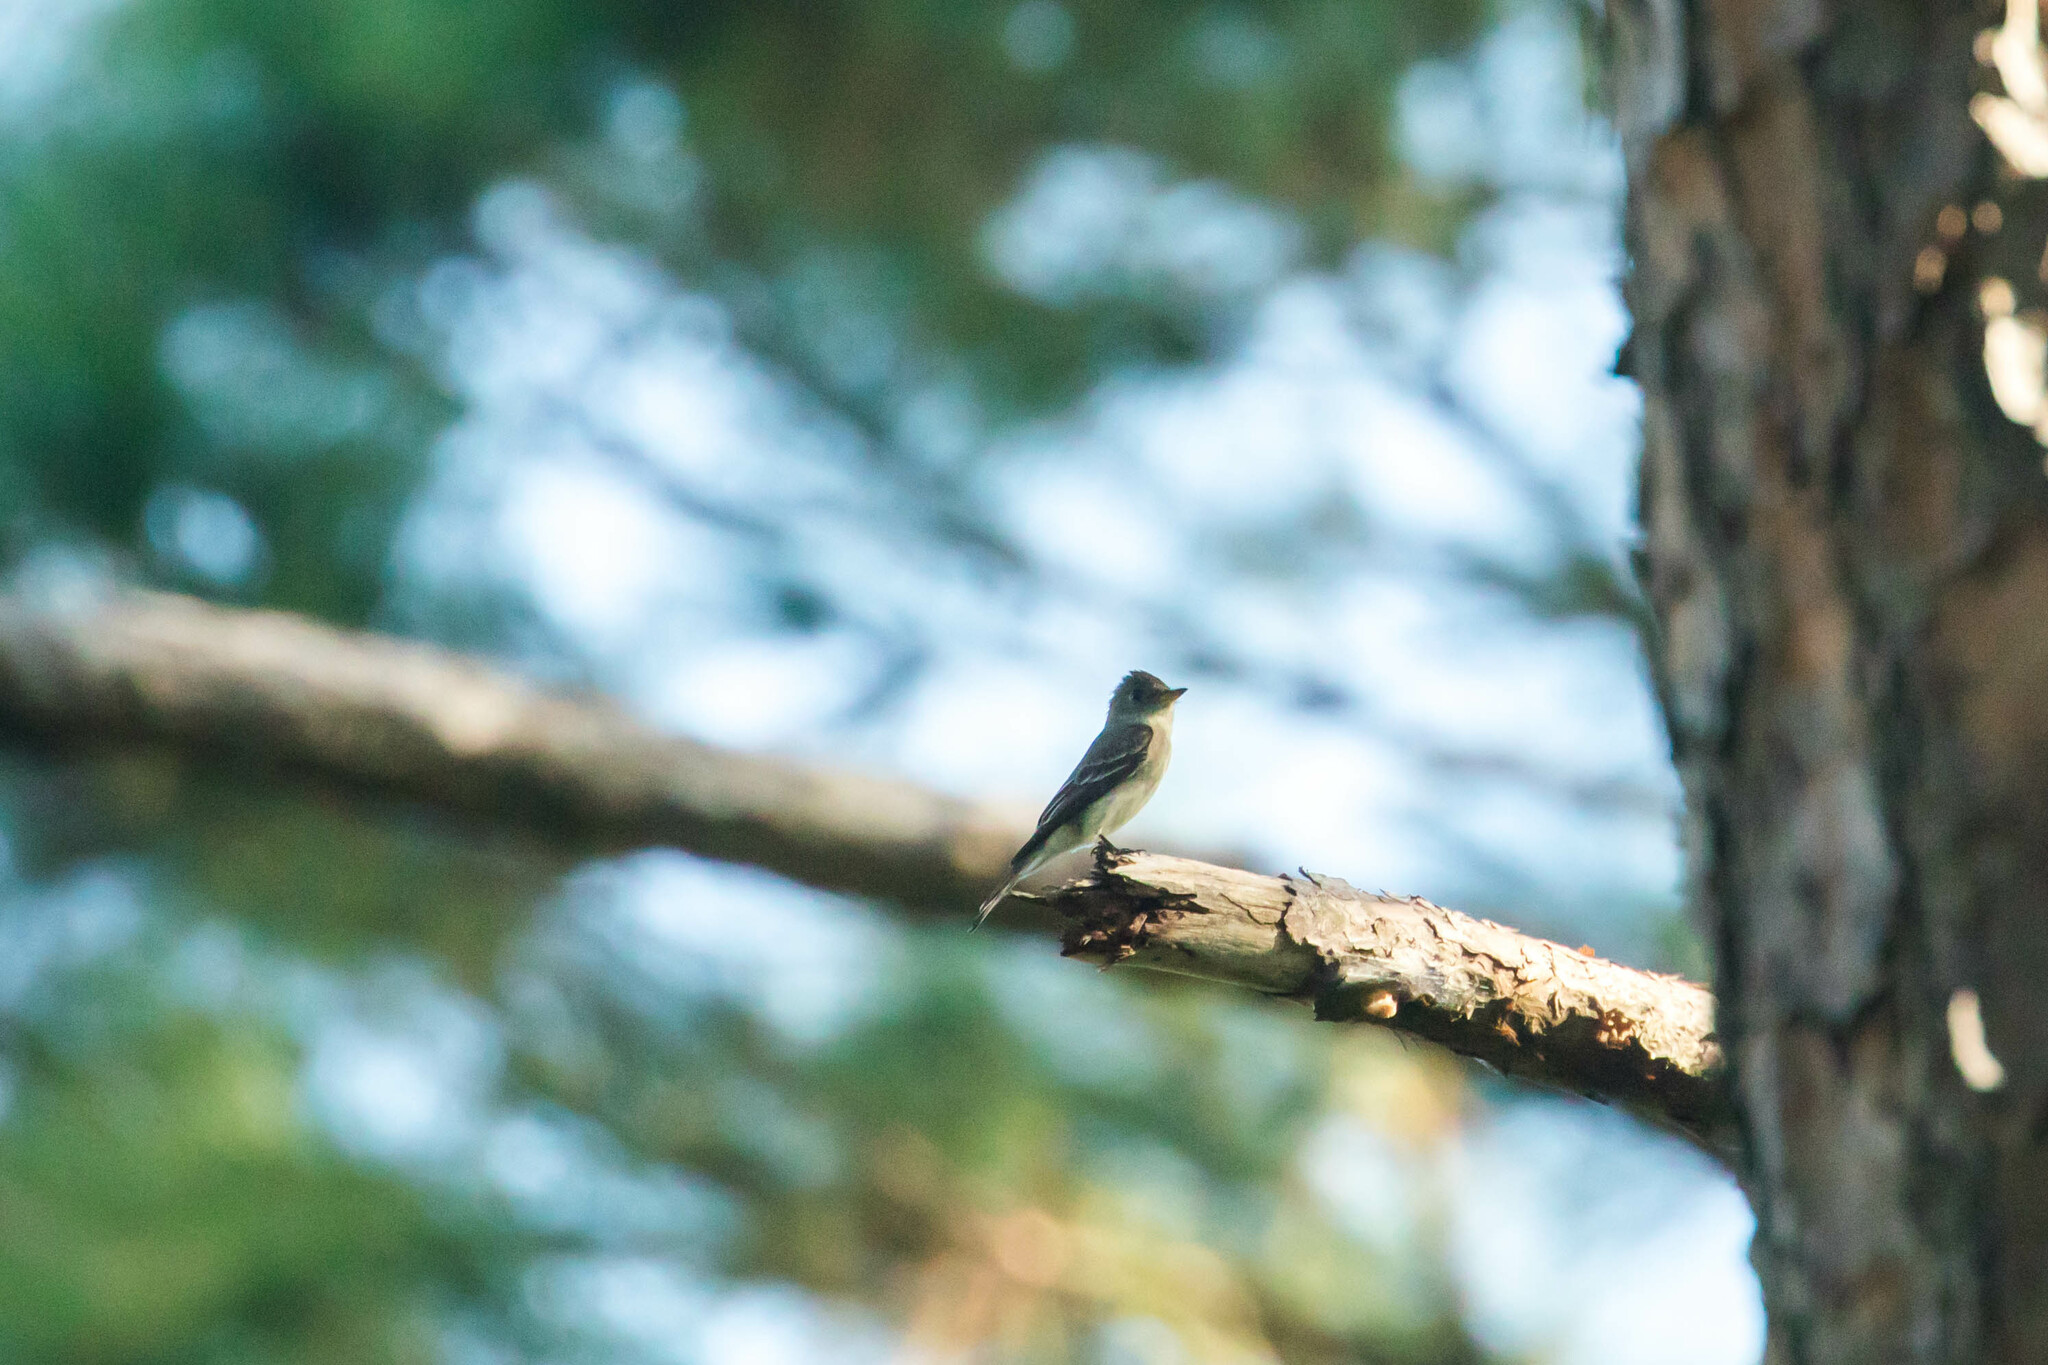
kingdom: Animalia
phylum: Chordata
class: Aves
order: Passeriformes
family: Tyrannidae
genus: Contopus
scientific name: Contopus virens
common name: Eastern wood-pewee
